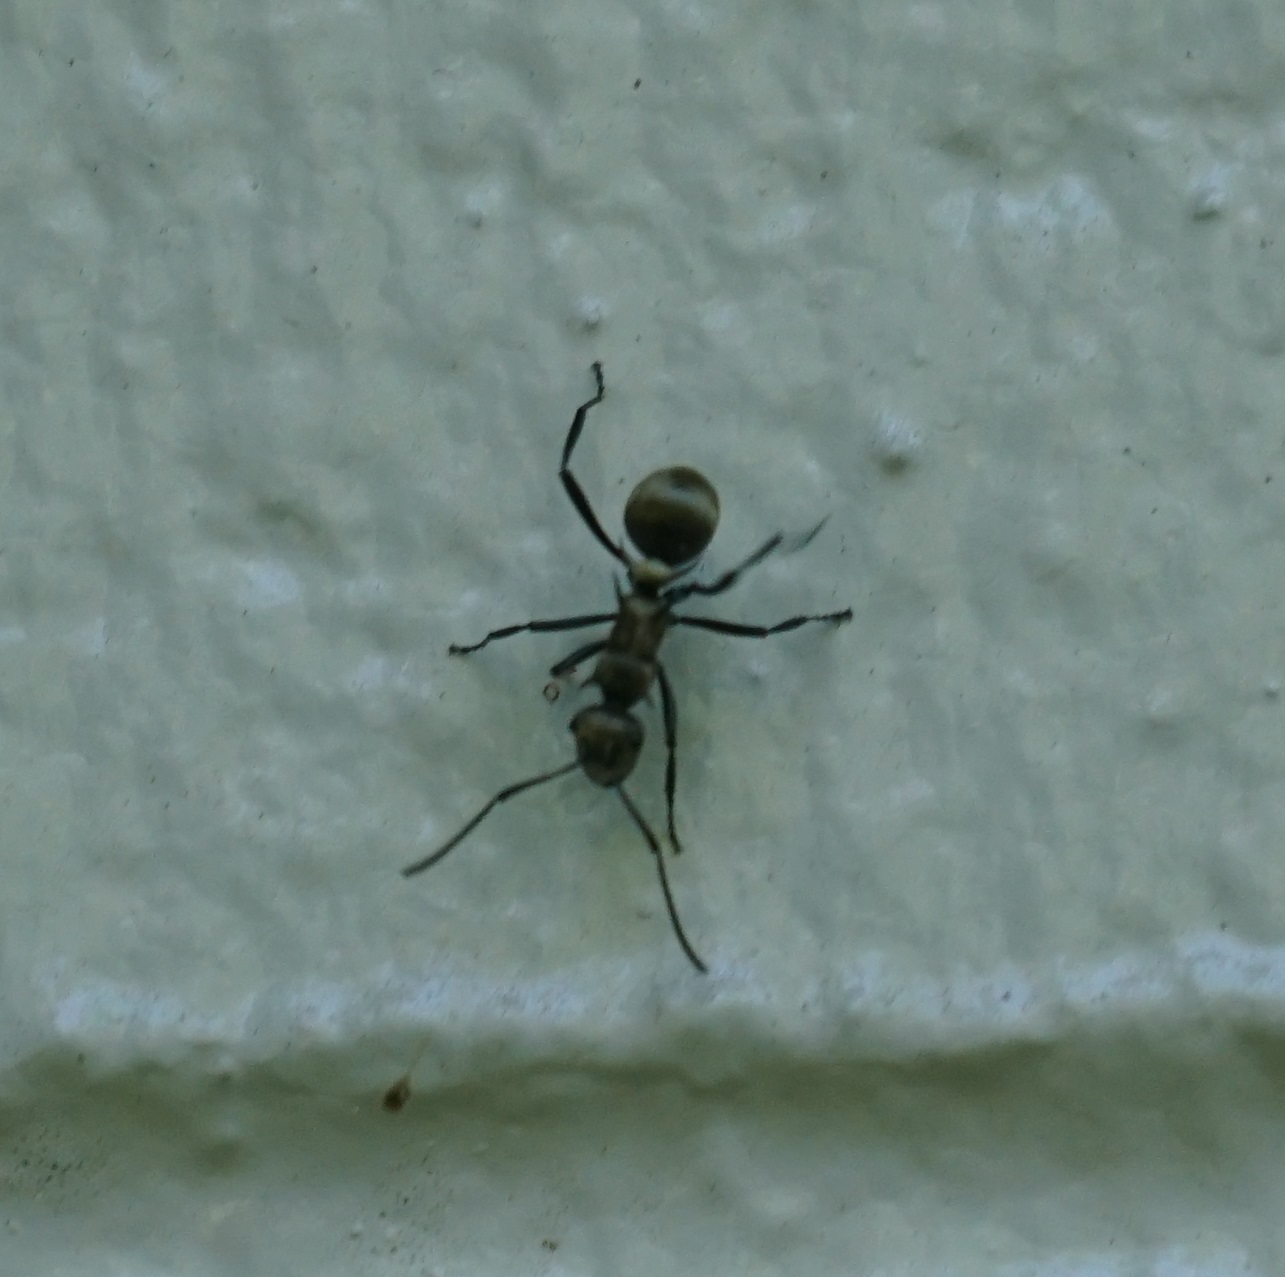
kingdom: Animalia
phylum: Arthropoda
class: Insecta
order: Hymenoptera
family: Formicidae
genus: Polyrhachis
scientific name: Polyrhachis cupreata
